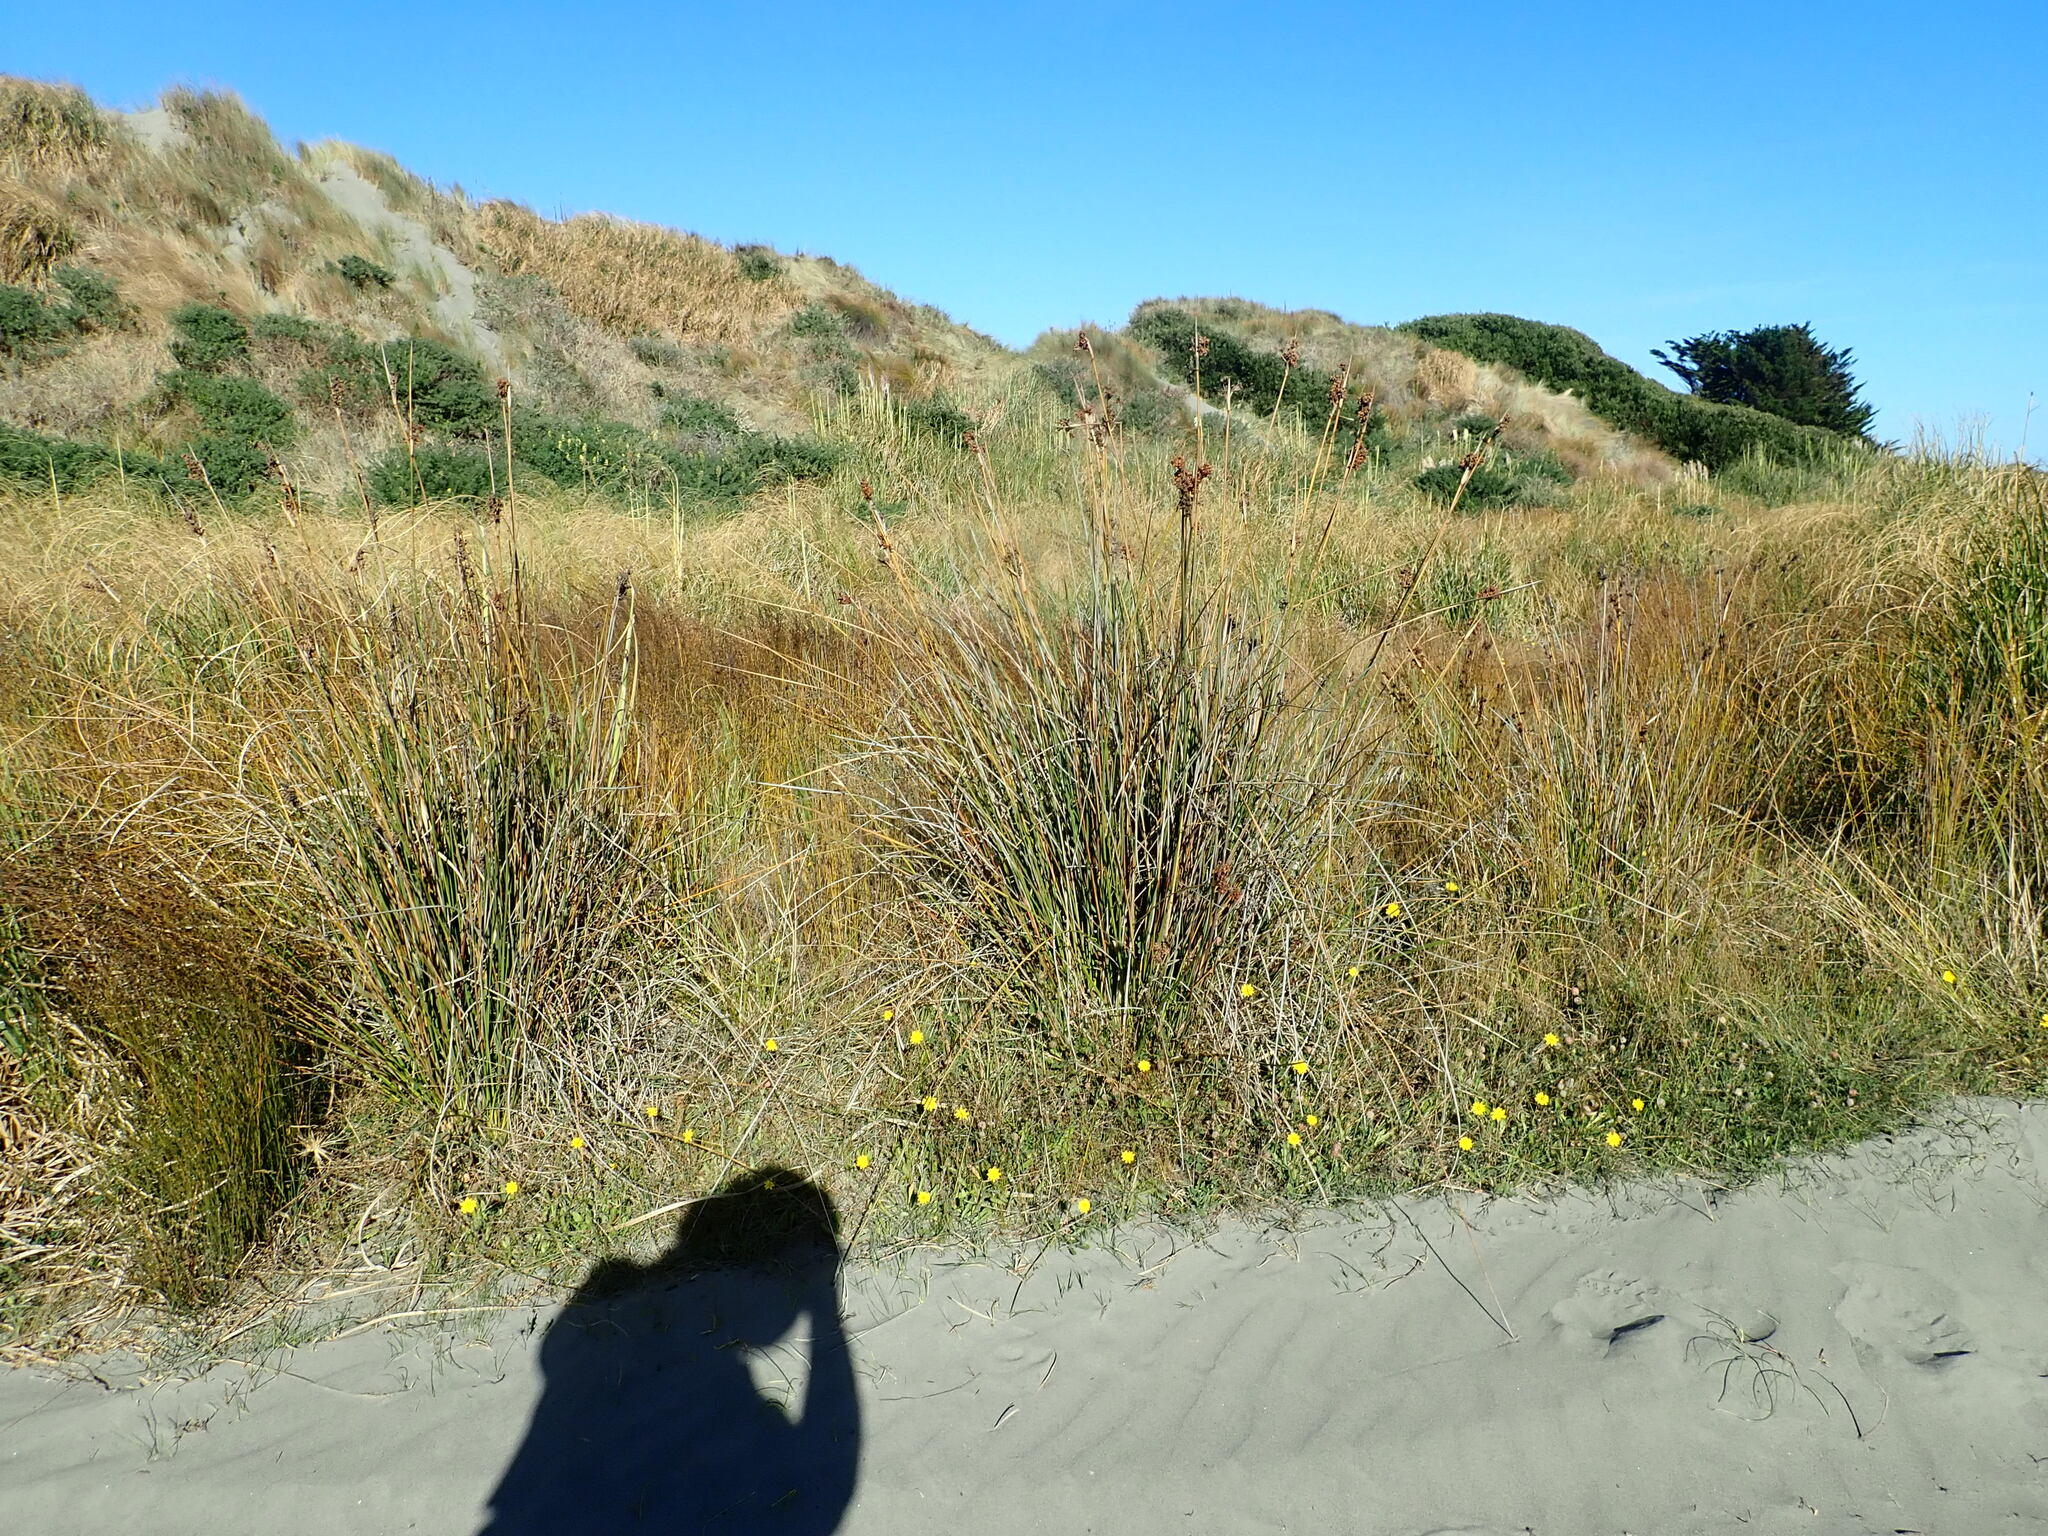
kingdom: Plantae
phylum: Tracheophyta
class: Liliopsida
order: Poales
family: Juncaceae
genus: Juncus
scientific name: Juncus acutus
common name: Sharp rush
